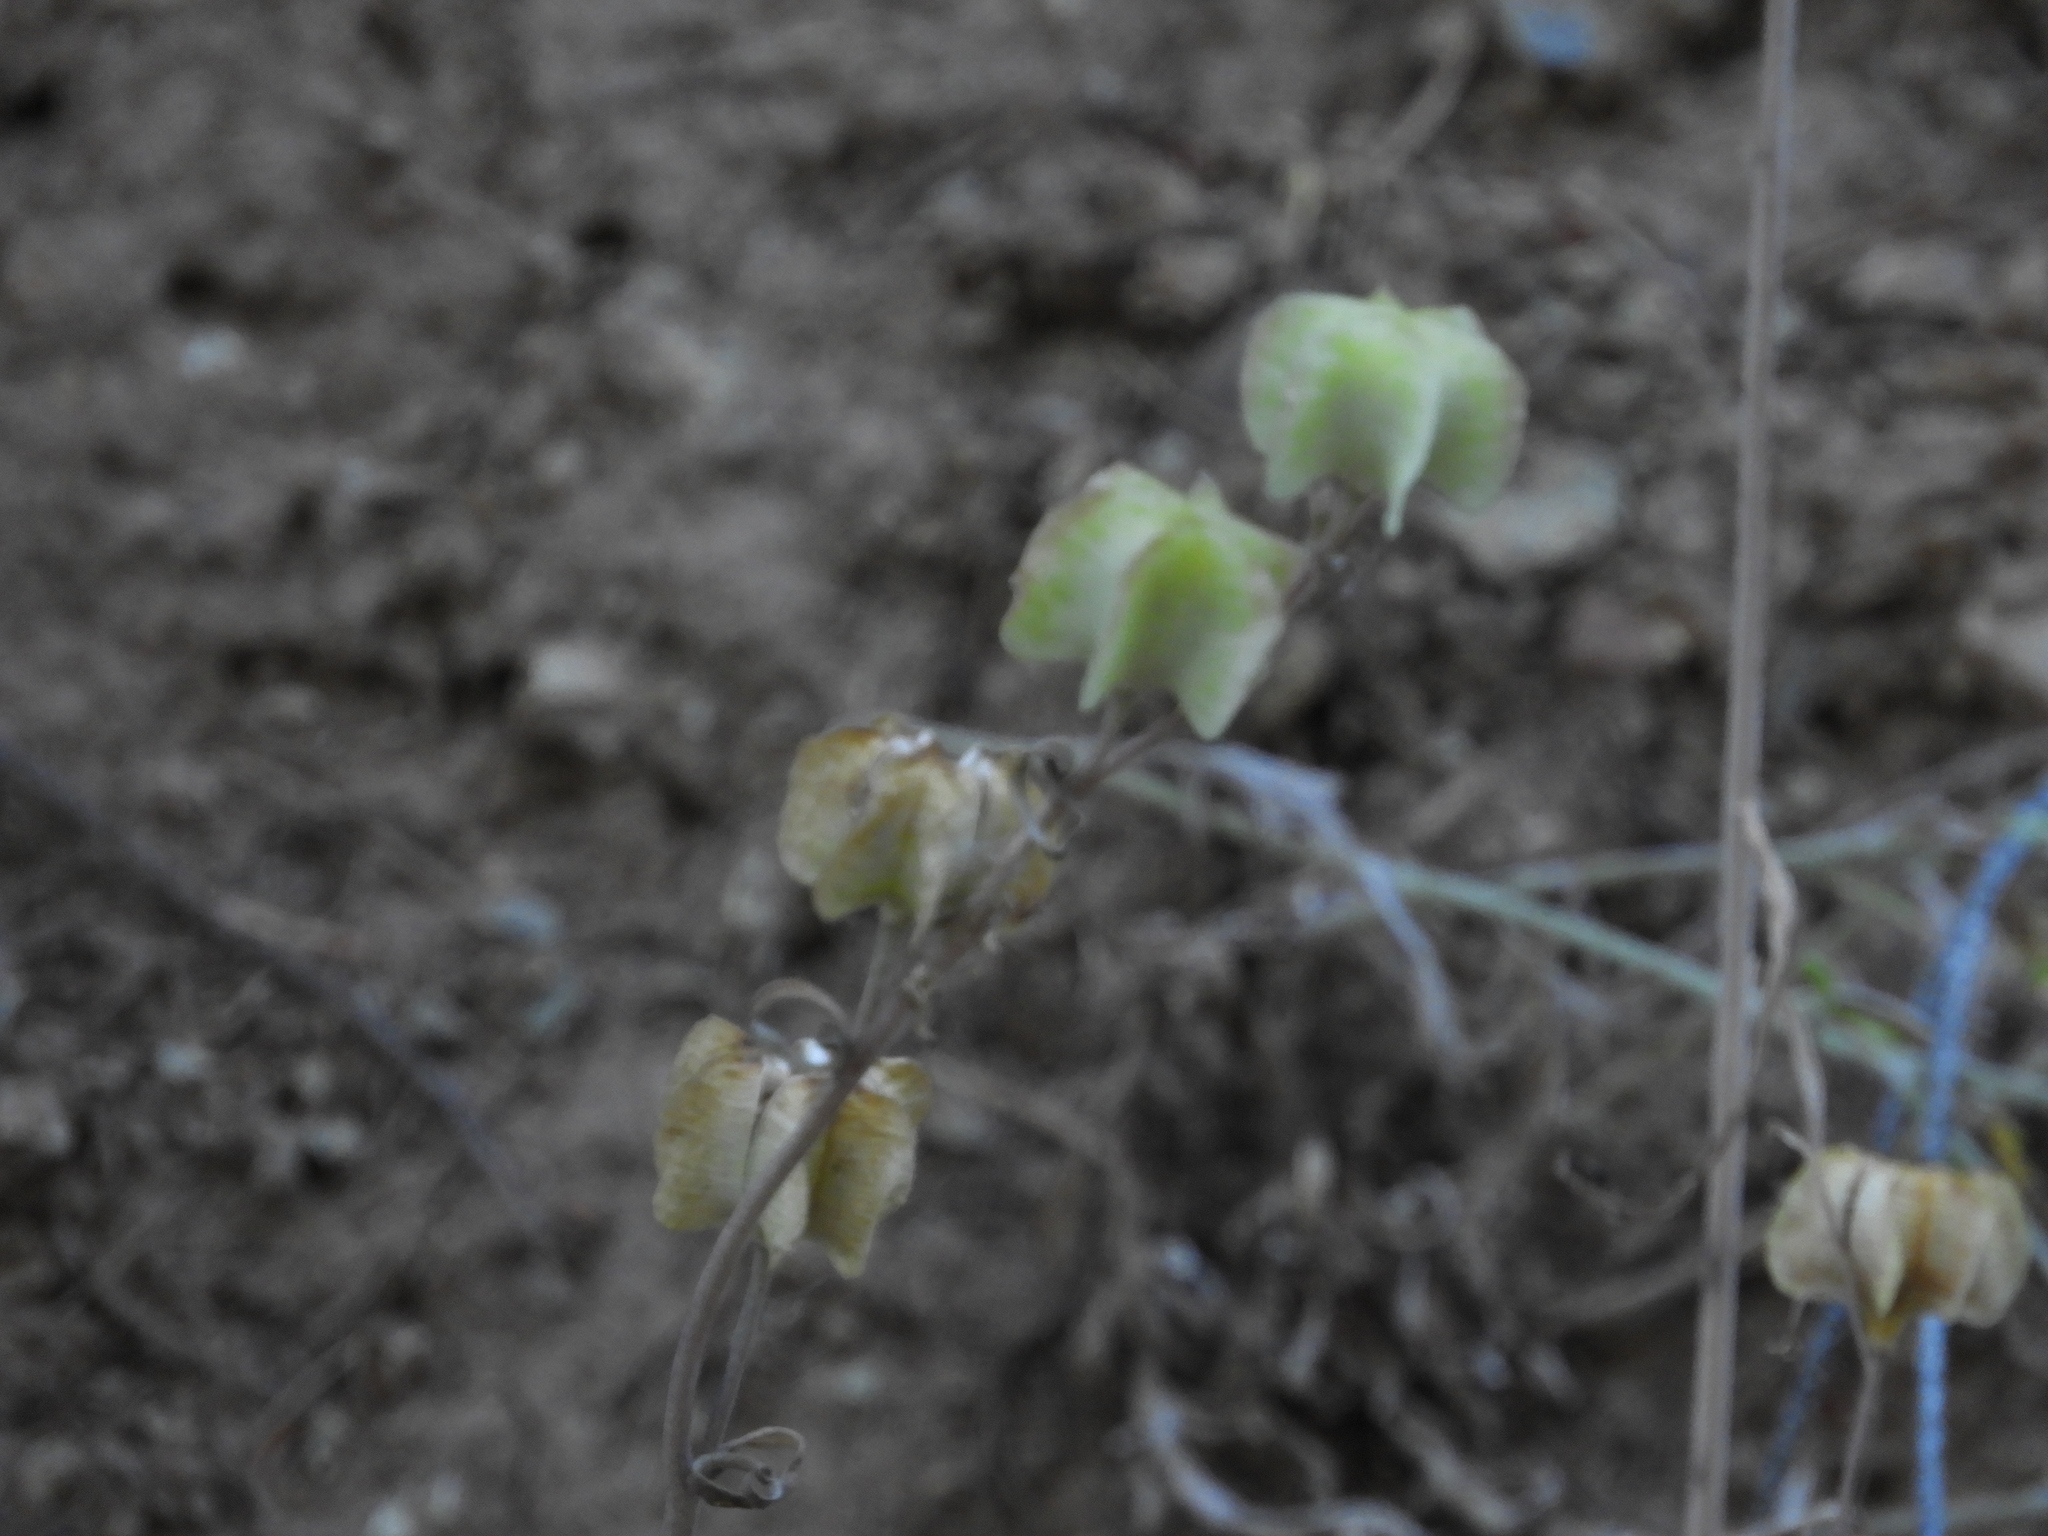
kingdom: Plantae
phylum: Tracheophyta
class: Liliopsida
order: Liliales
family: Liliaceae
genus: Fritillaria
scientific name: Fritillaria micrantha
